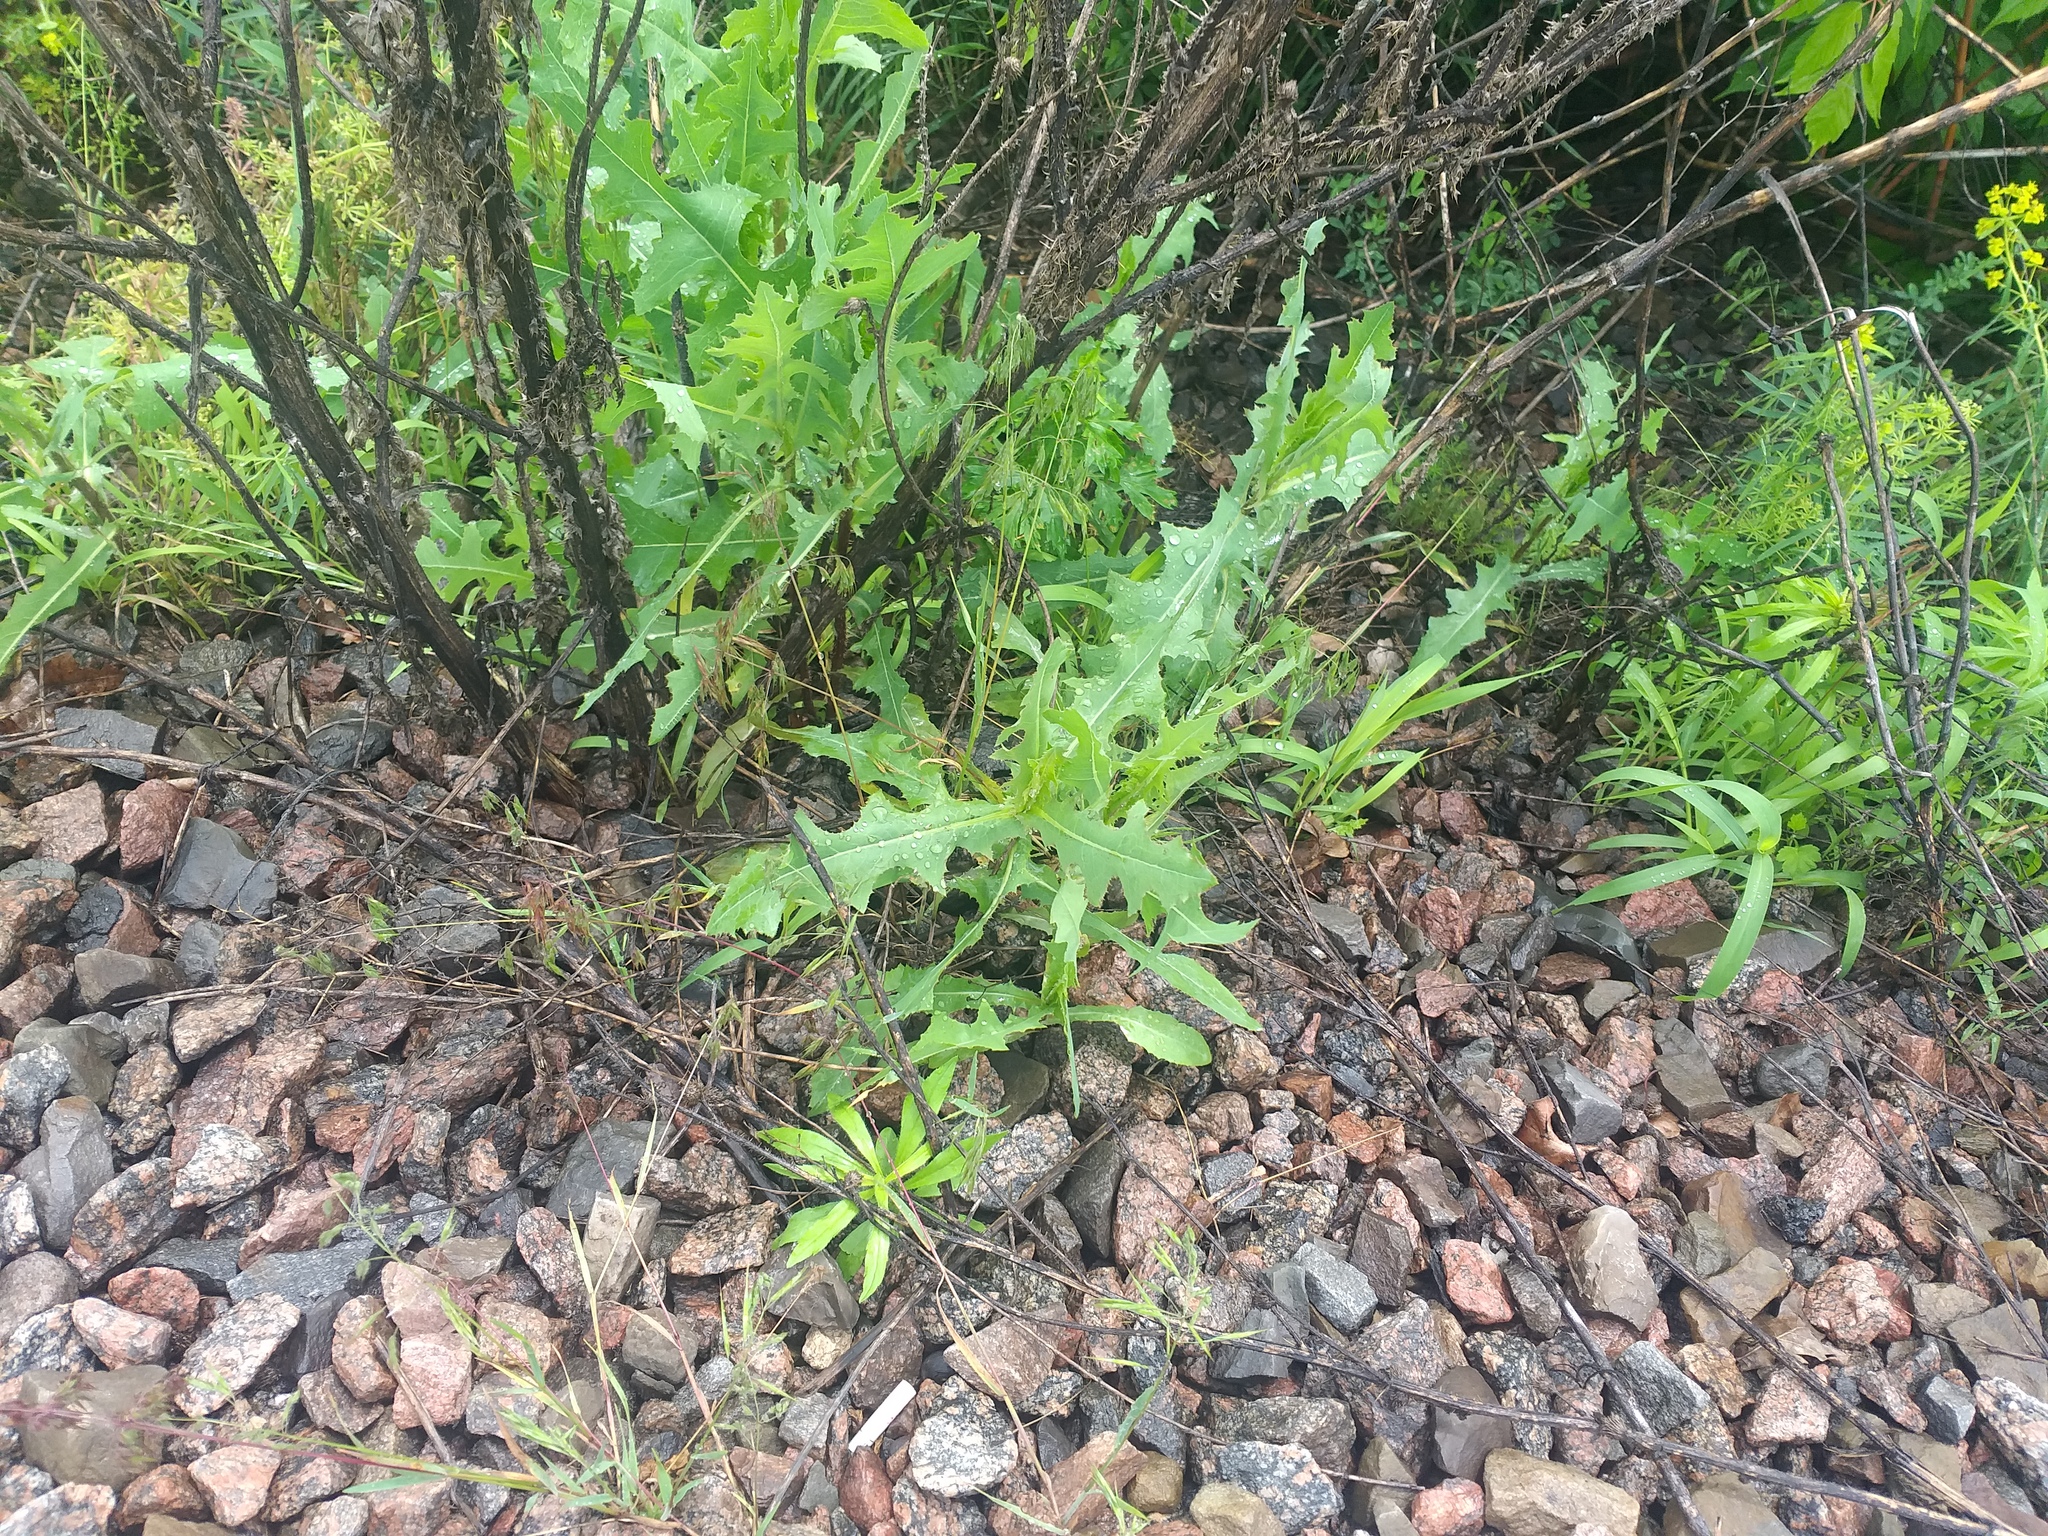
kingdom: Plantae
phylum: Tracheophyta
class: Magnoliopsida
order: Asterales
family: Asteraceae
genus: Lactuca
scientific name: Lactuca serriola
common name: Prickly lettuce
